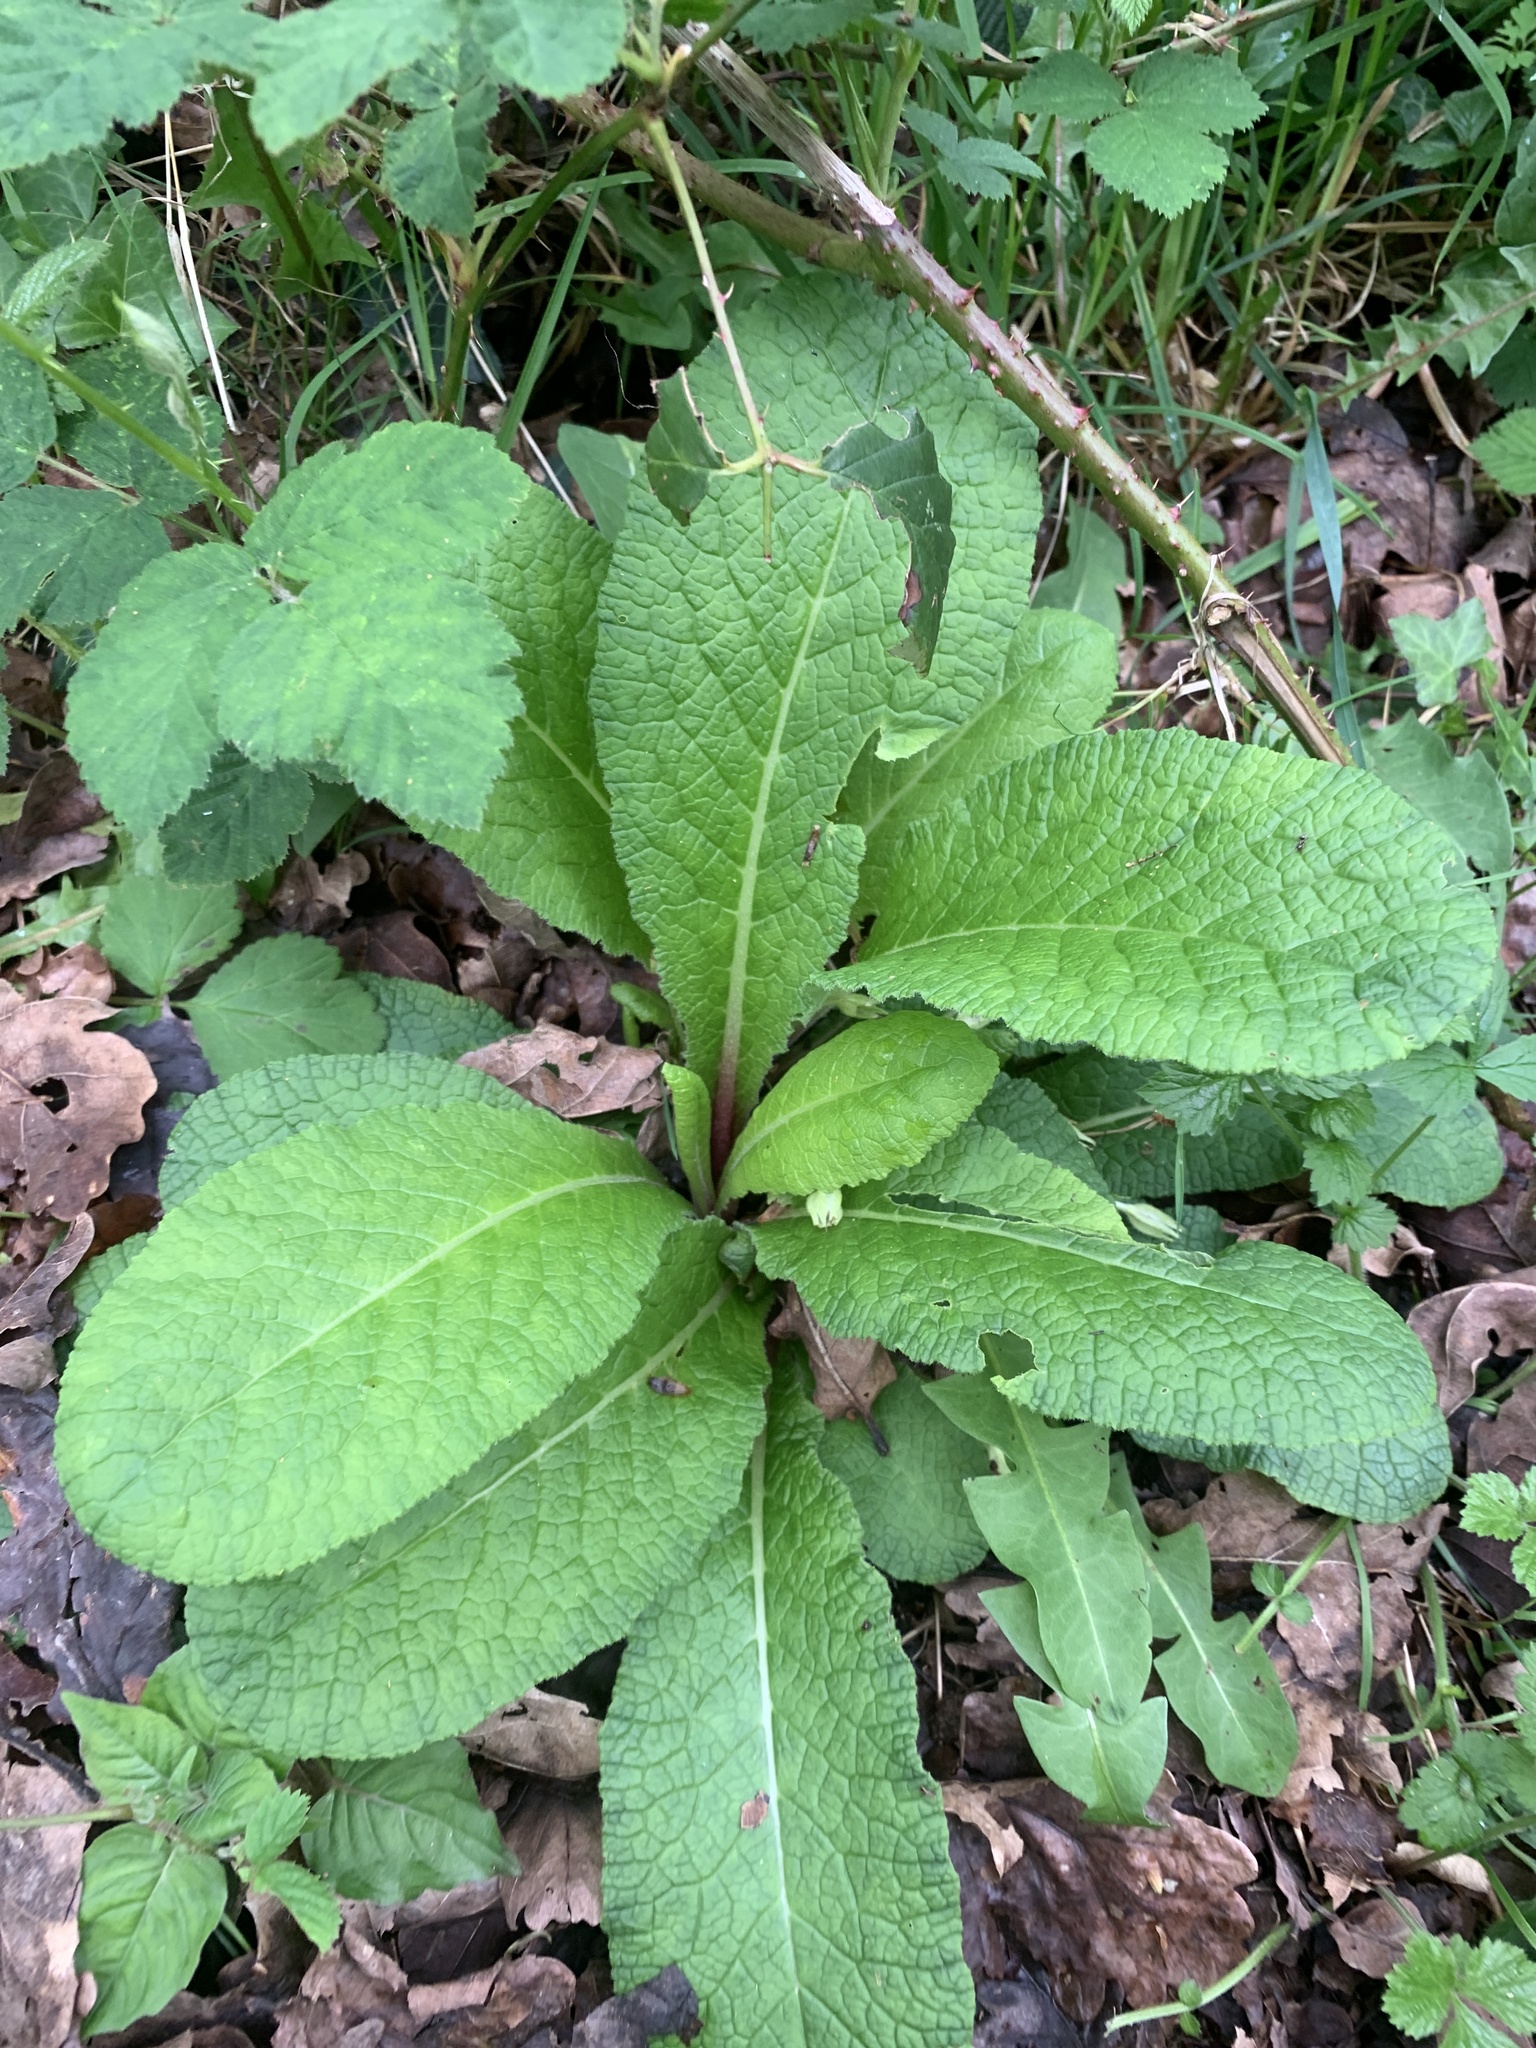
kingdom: Plantae
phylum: Tracheophyta
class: Magnoliopsida
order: Ericales
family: Primulaceae
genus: Primula
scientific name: Primula vulgaris
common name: Primrose
